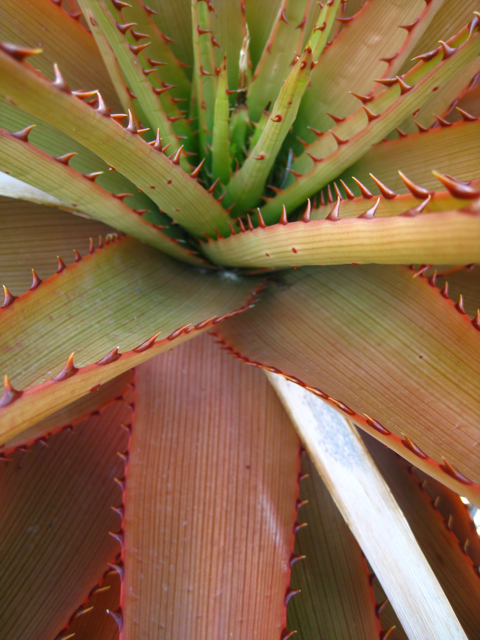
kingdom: Plantae
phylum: Tracheophyta
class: Liliopsida
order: Asparagales
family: Asphodelaceae
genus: Aloe
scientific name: Aloe lineata
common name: Lined red-spined aloe
